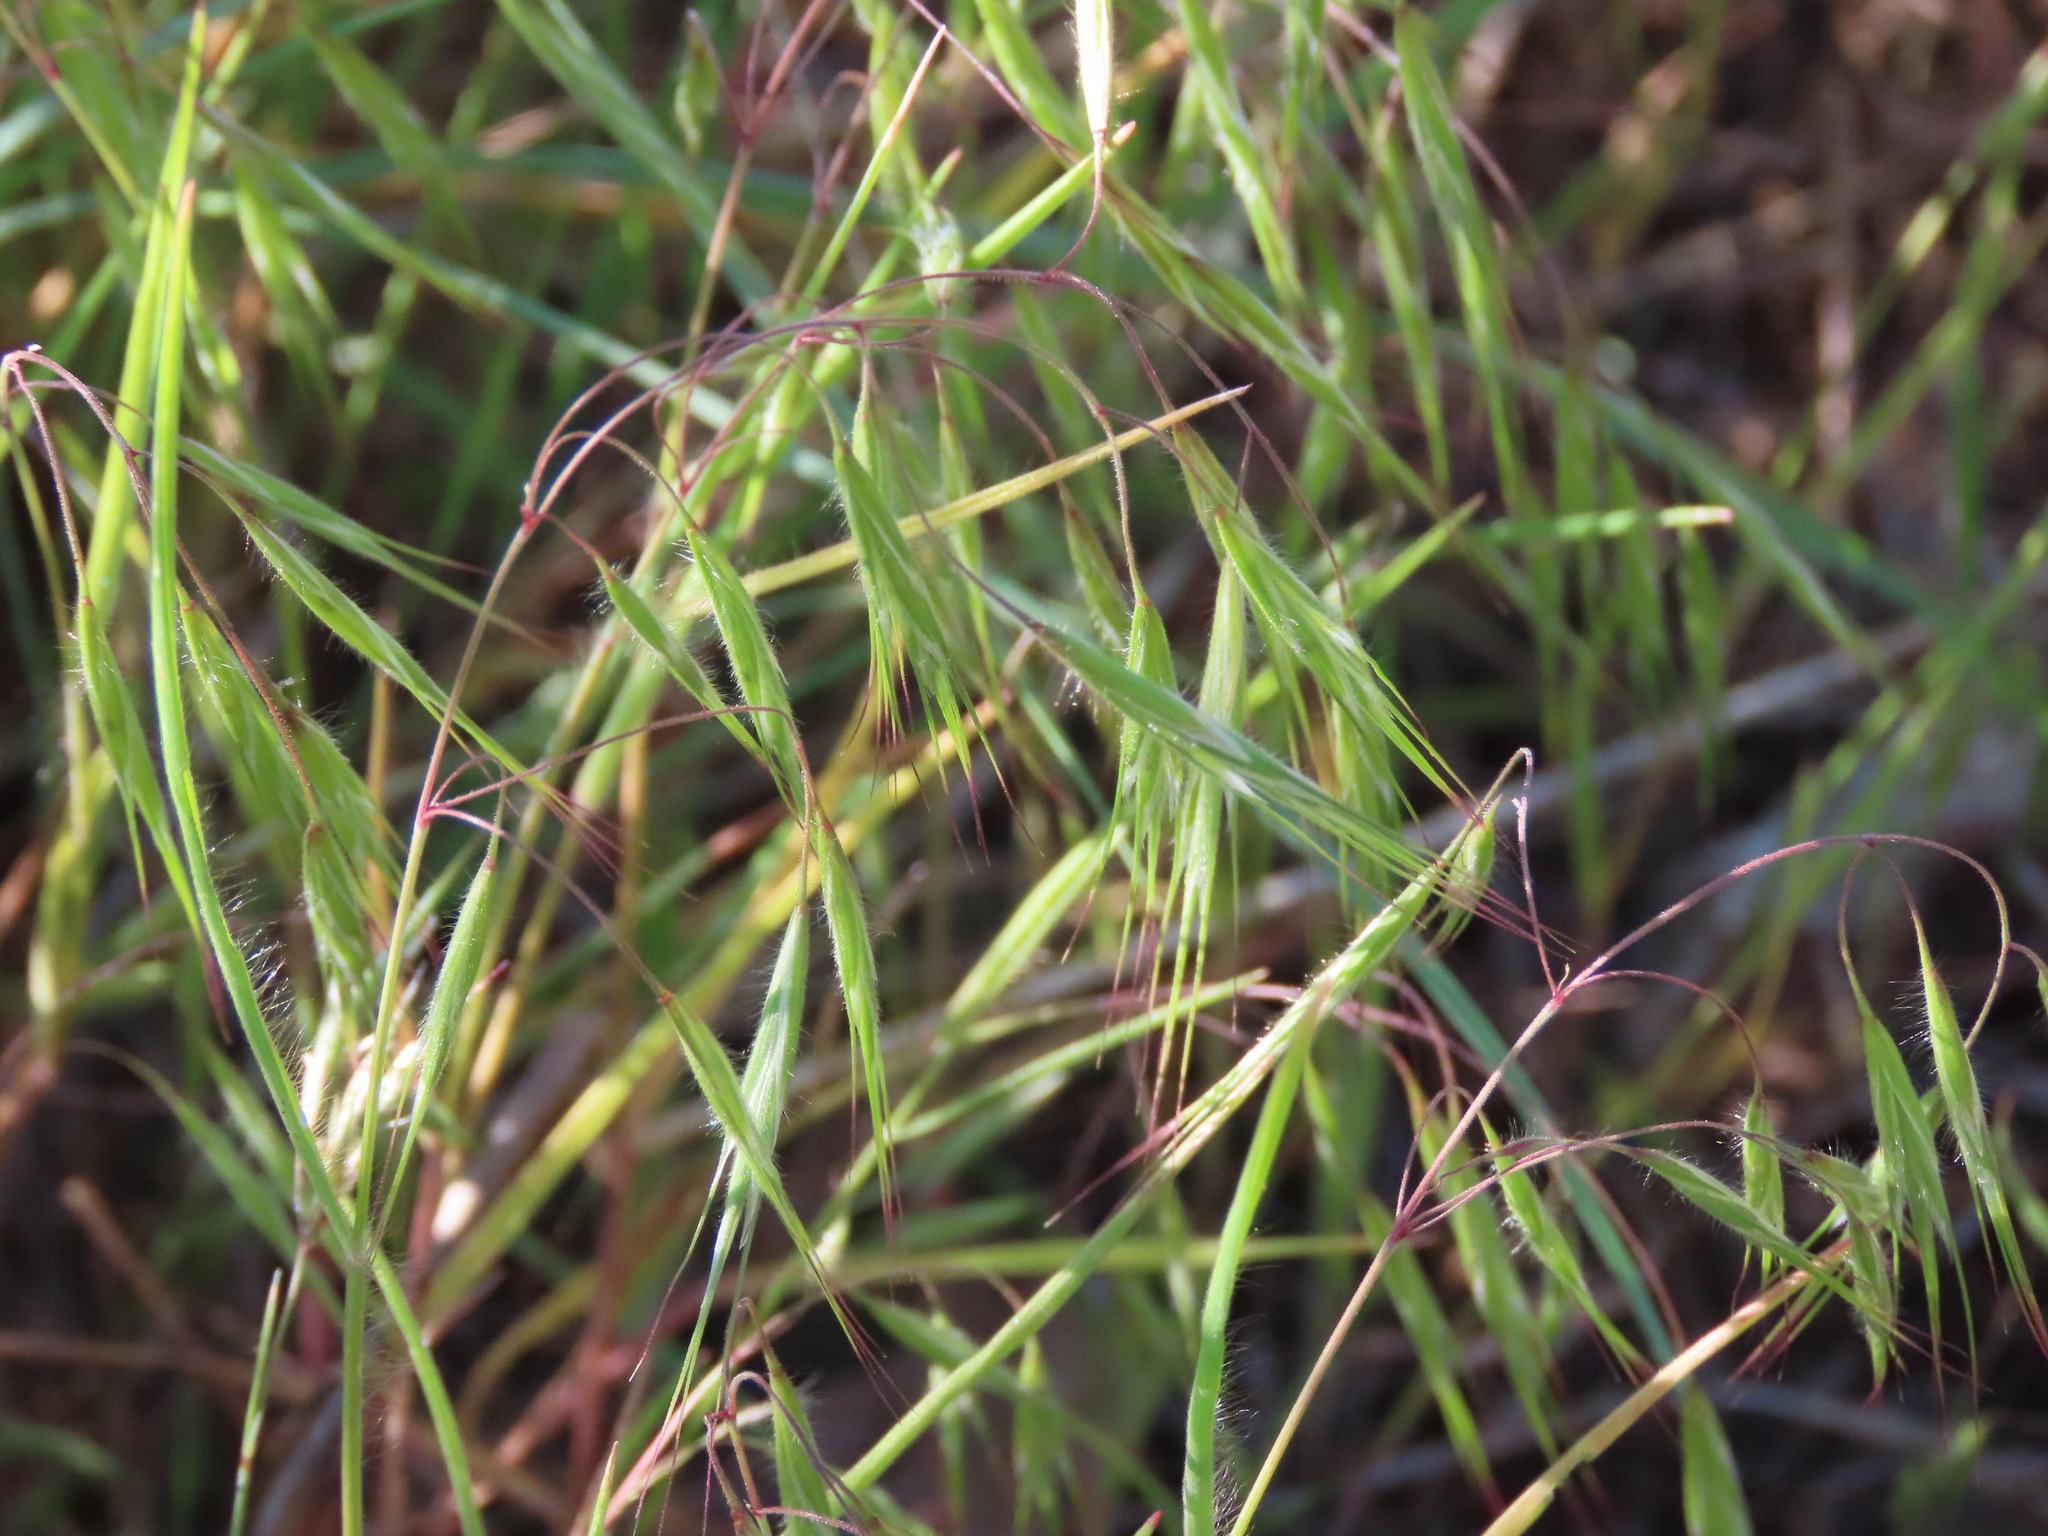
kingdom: Plantae
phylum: Tracheophyta
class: Liliopsida
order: Poales
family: Poaceae
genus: Bromus
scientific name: Bromus tectorum
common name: Cheatgrass
